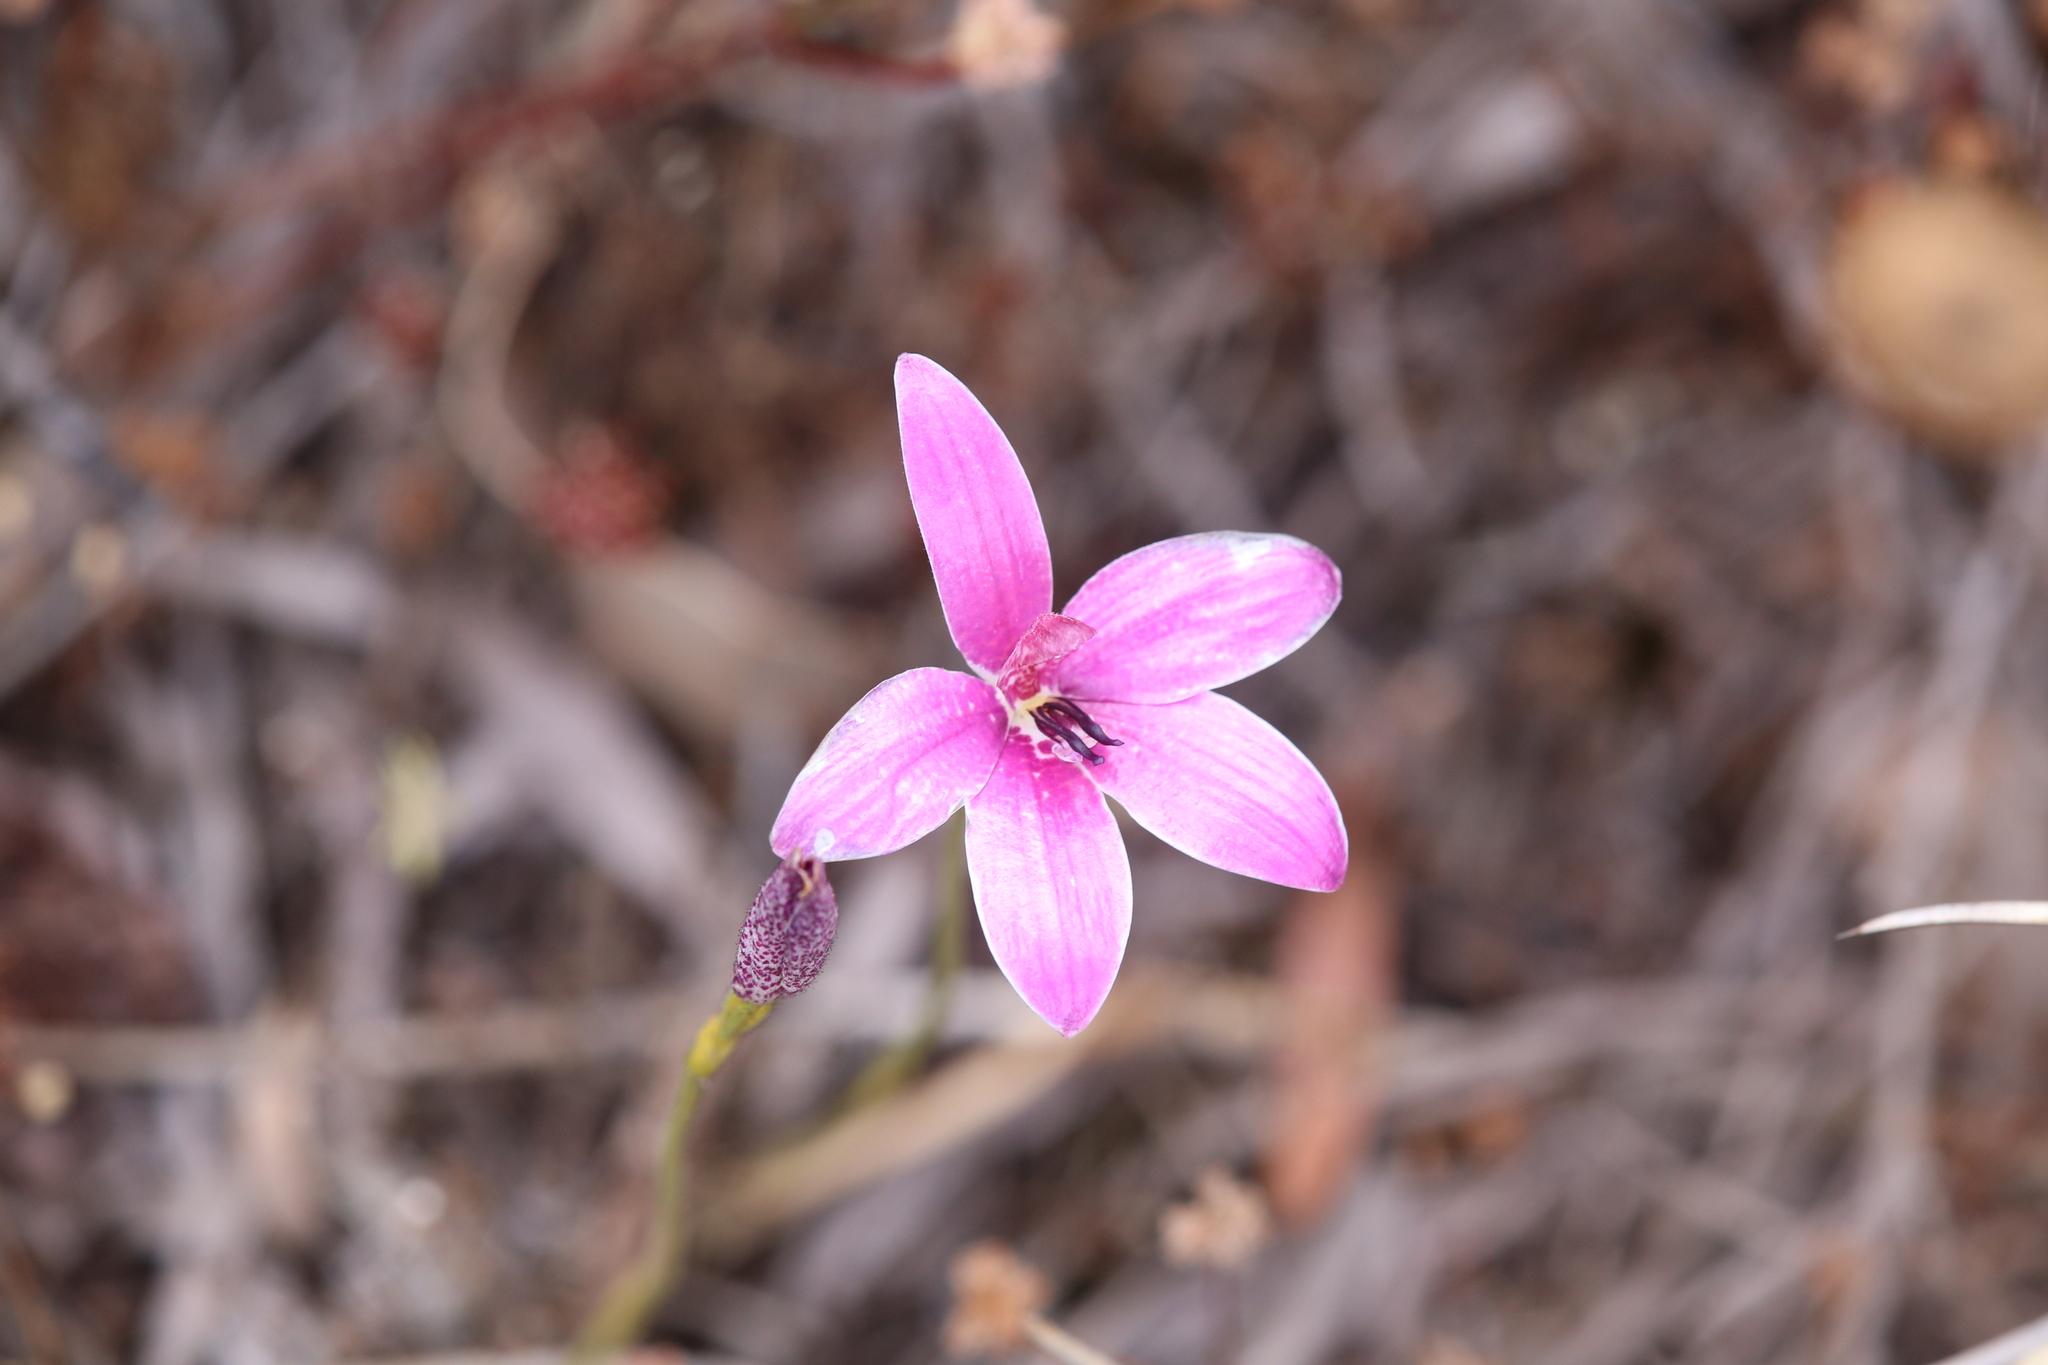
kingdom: Plantae
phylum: Tracheophyta
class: Liliopsida
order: Asparagales
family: Orchidaceae
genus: Caladenia
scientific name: Caladenia emarginata
